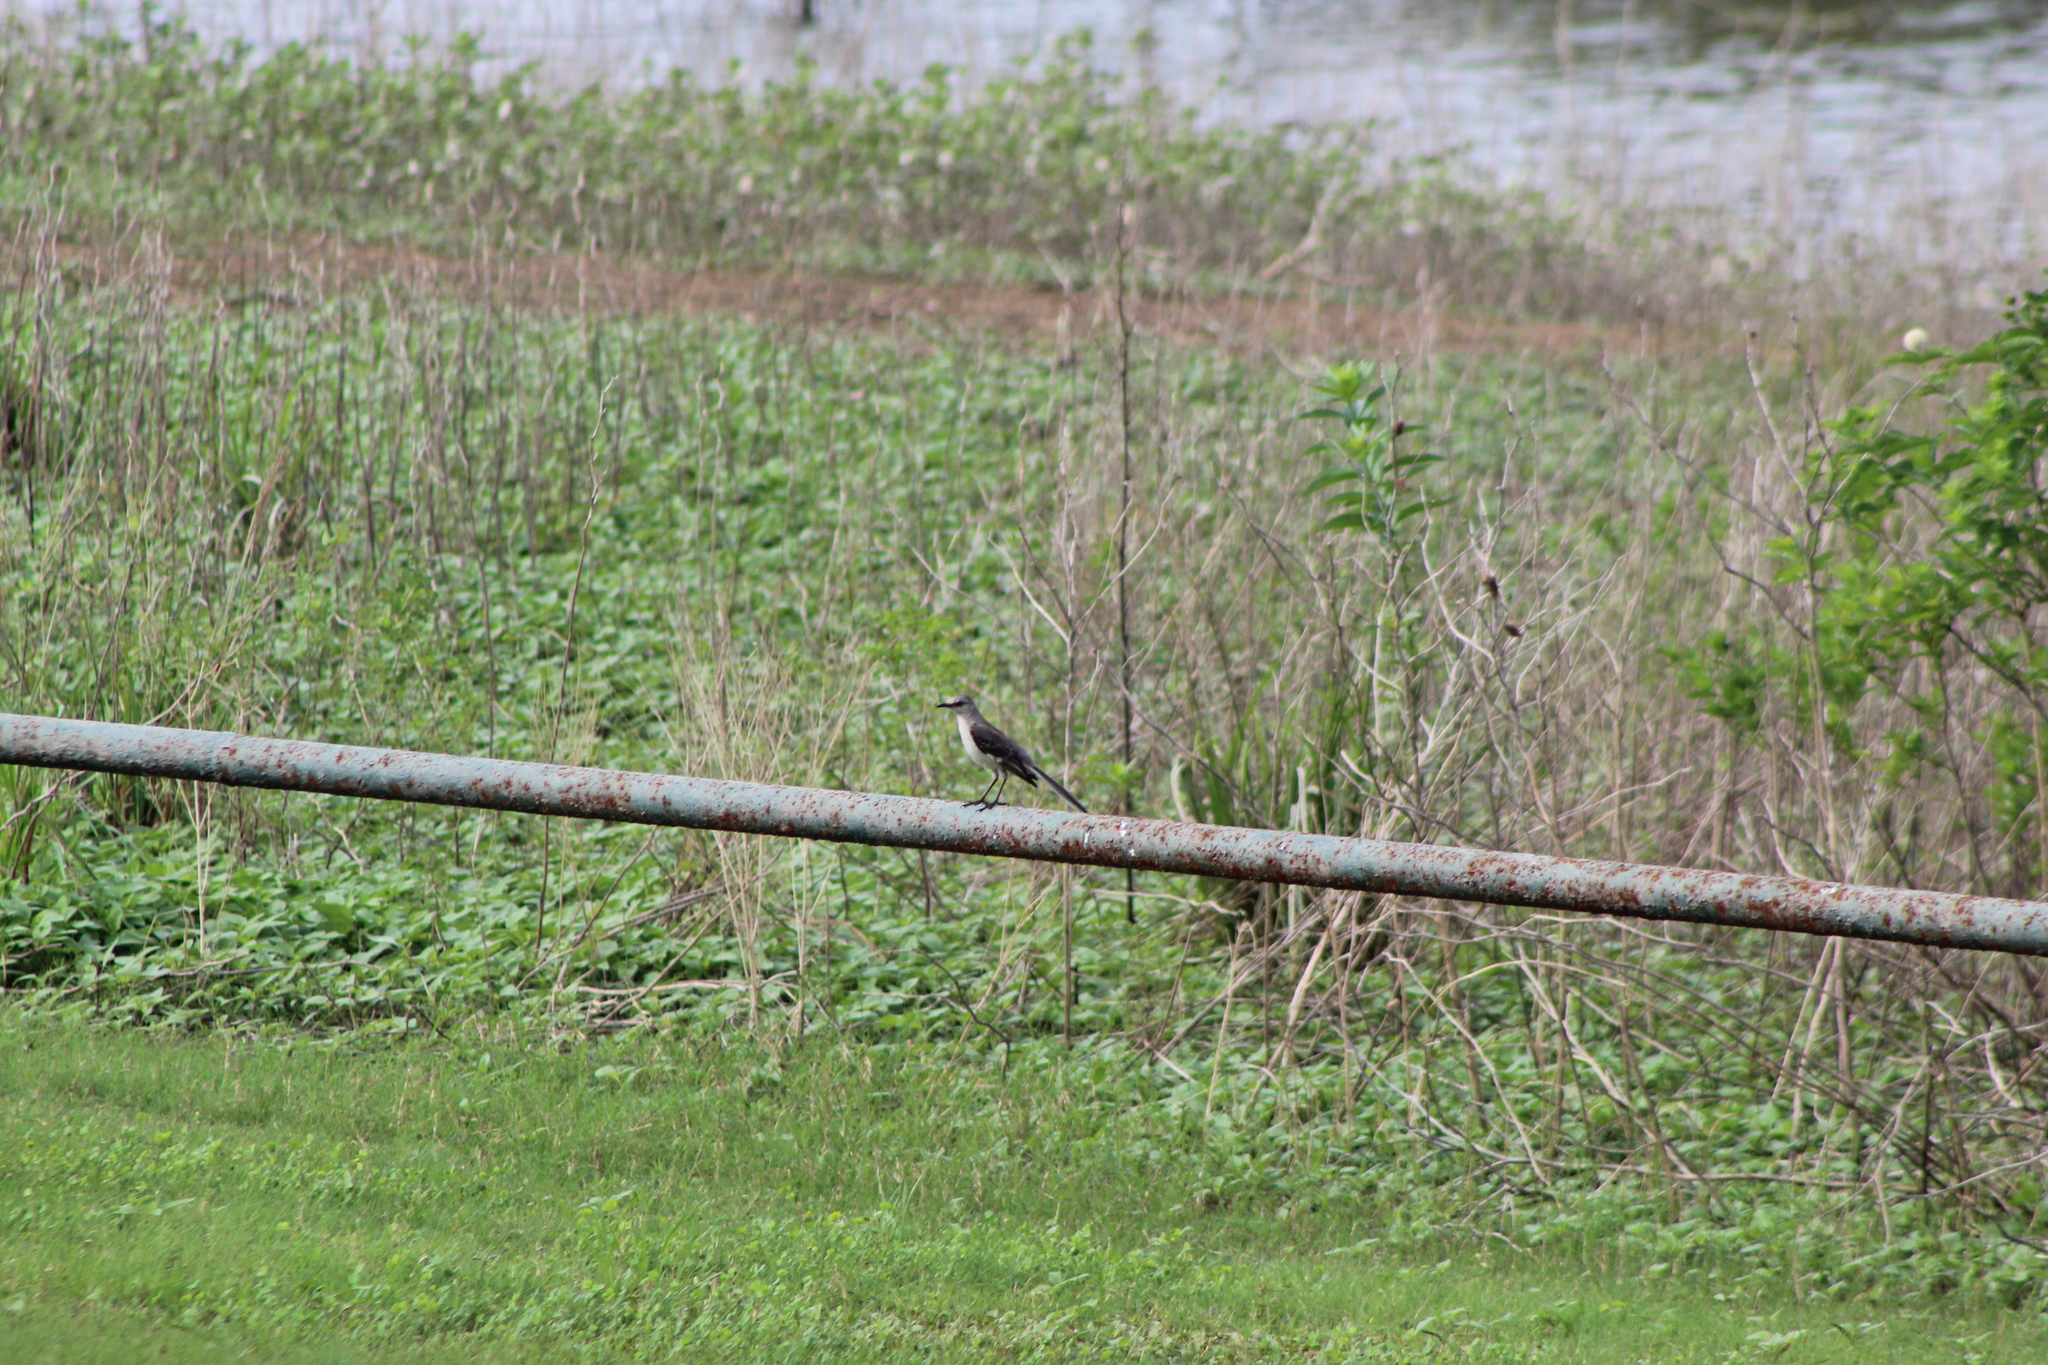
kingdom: Animalia
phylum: Chordata
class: Aves
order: Passeriformes
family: Mimidae
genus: Mimus
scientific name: Mimus polyglottos
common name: Northern mockingbird
